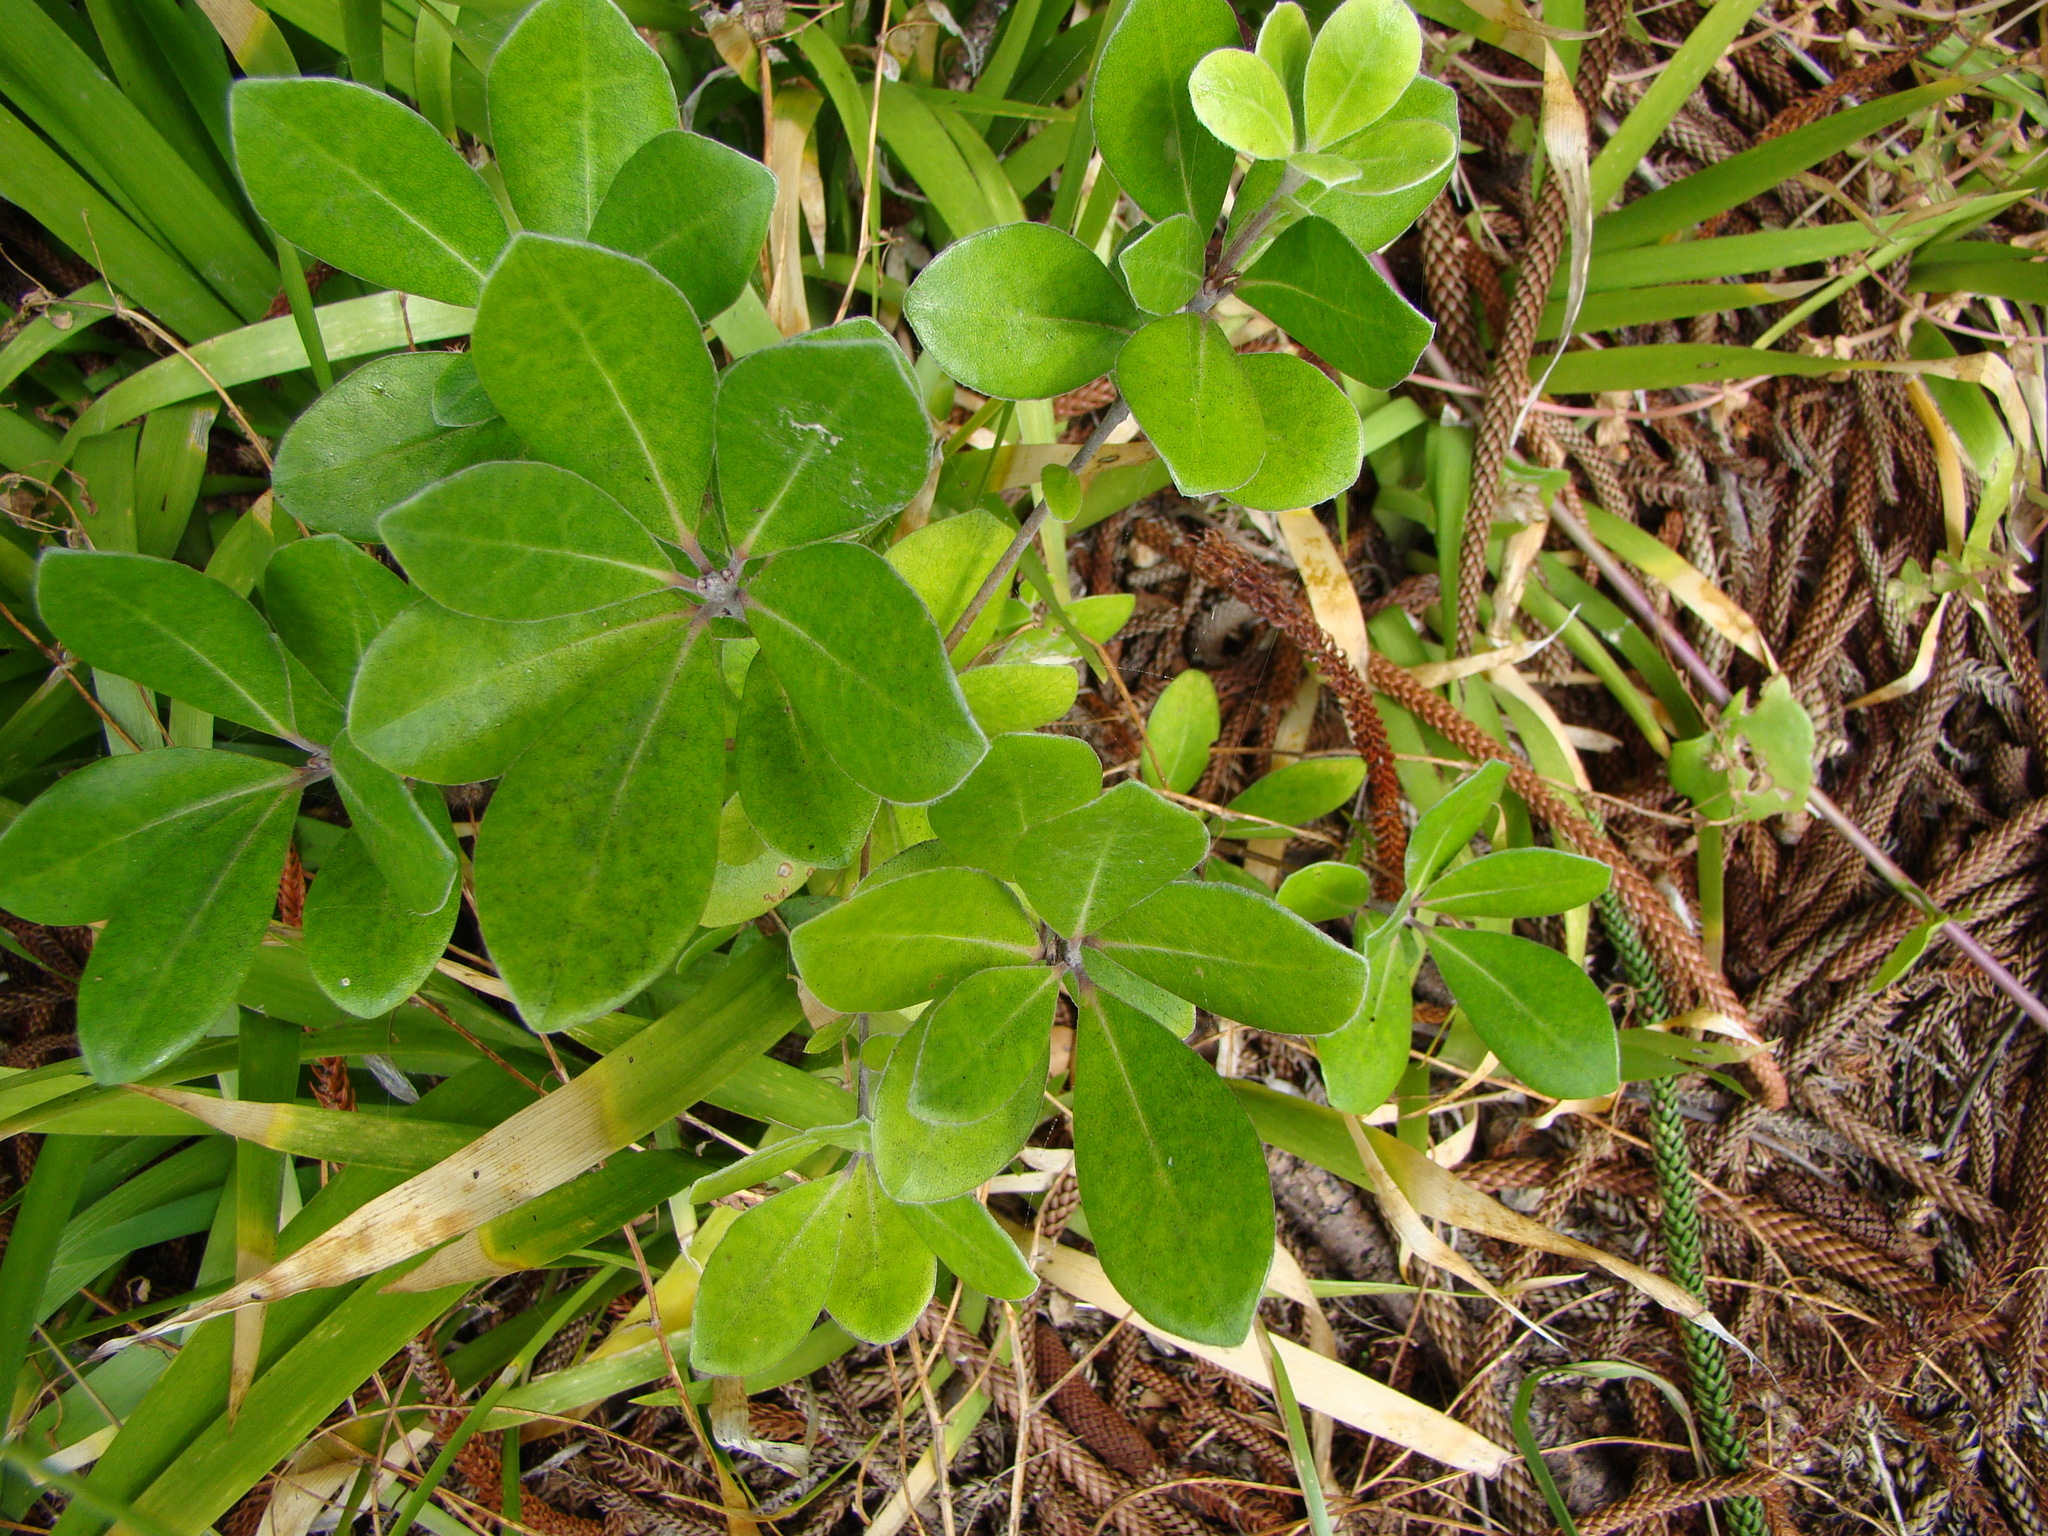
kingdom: Plantae
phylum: Tracheophyta
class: Magnoliopsida
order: Apiales
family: Pittosporaceae
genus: Pittosporum
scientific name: Pittosporum crassifolium
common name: Karo
